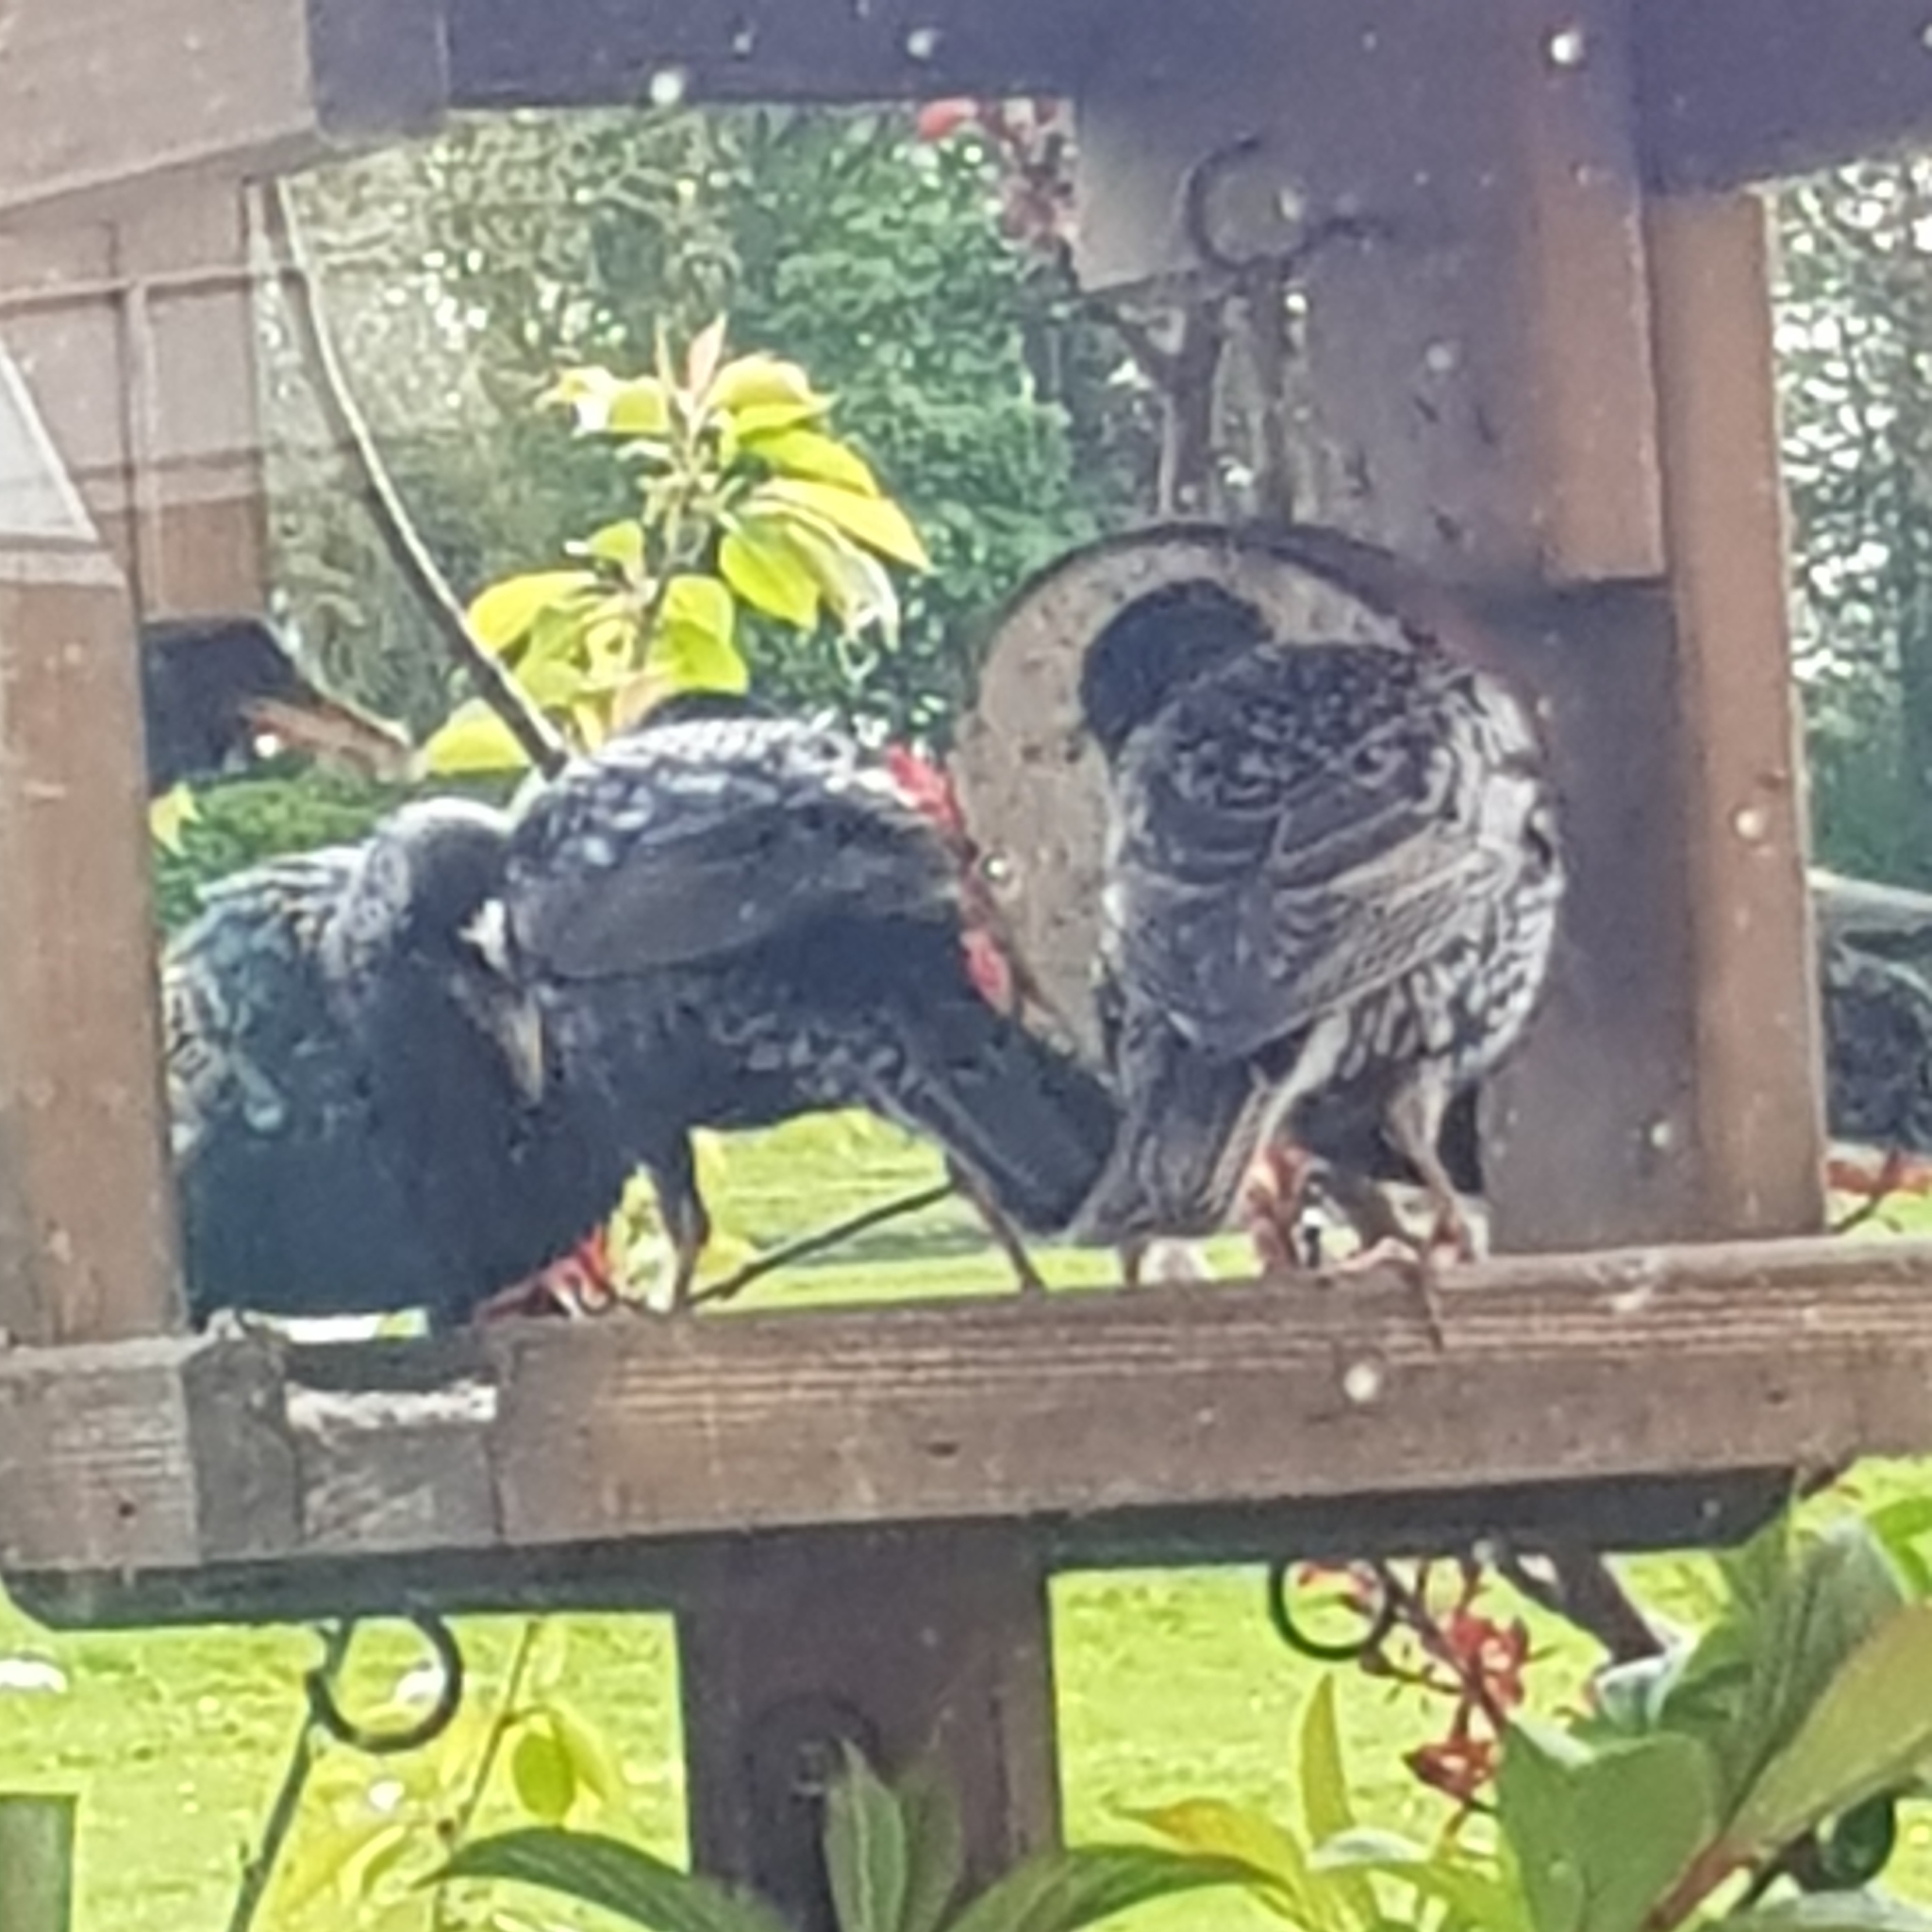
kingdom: Animalia
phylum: Chordata
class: Aves
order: Passeriformes
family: Sturnidae
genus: Sturnus
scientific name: Sturnus vulgaris
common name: Common starling
